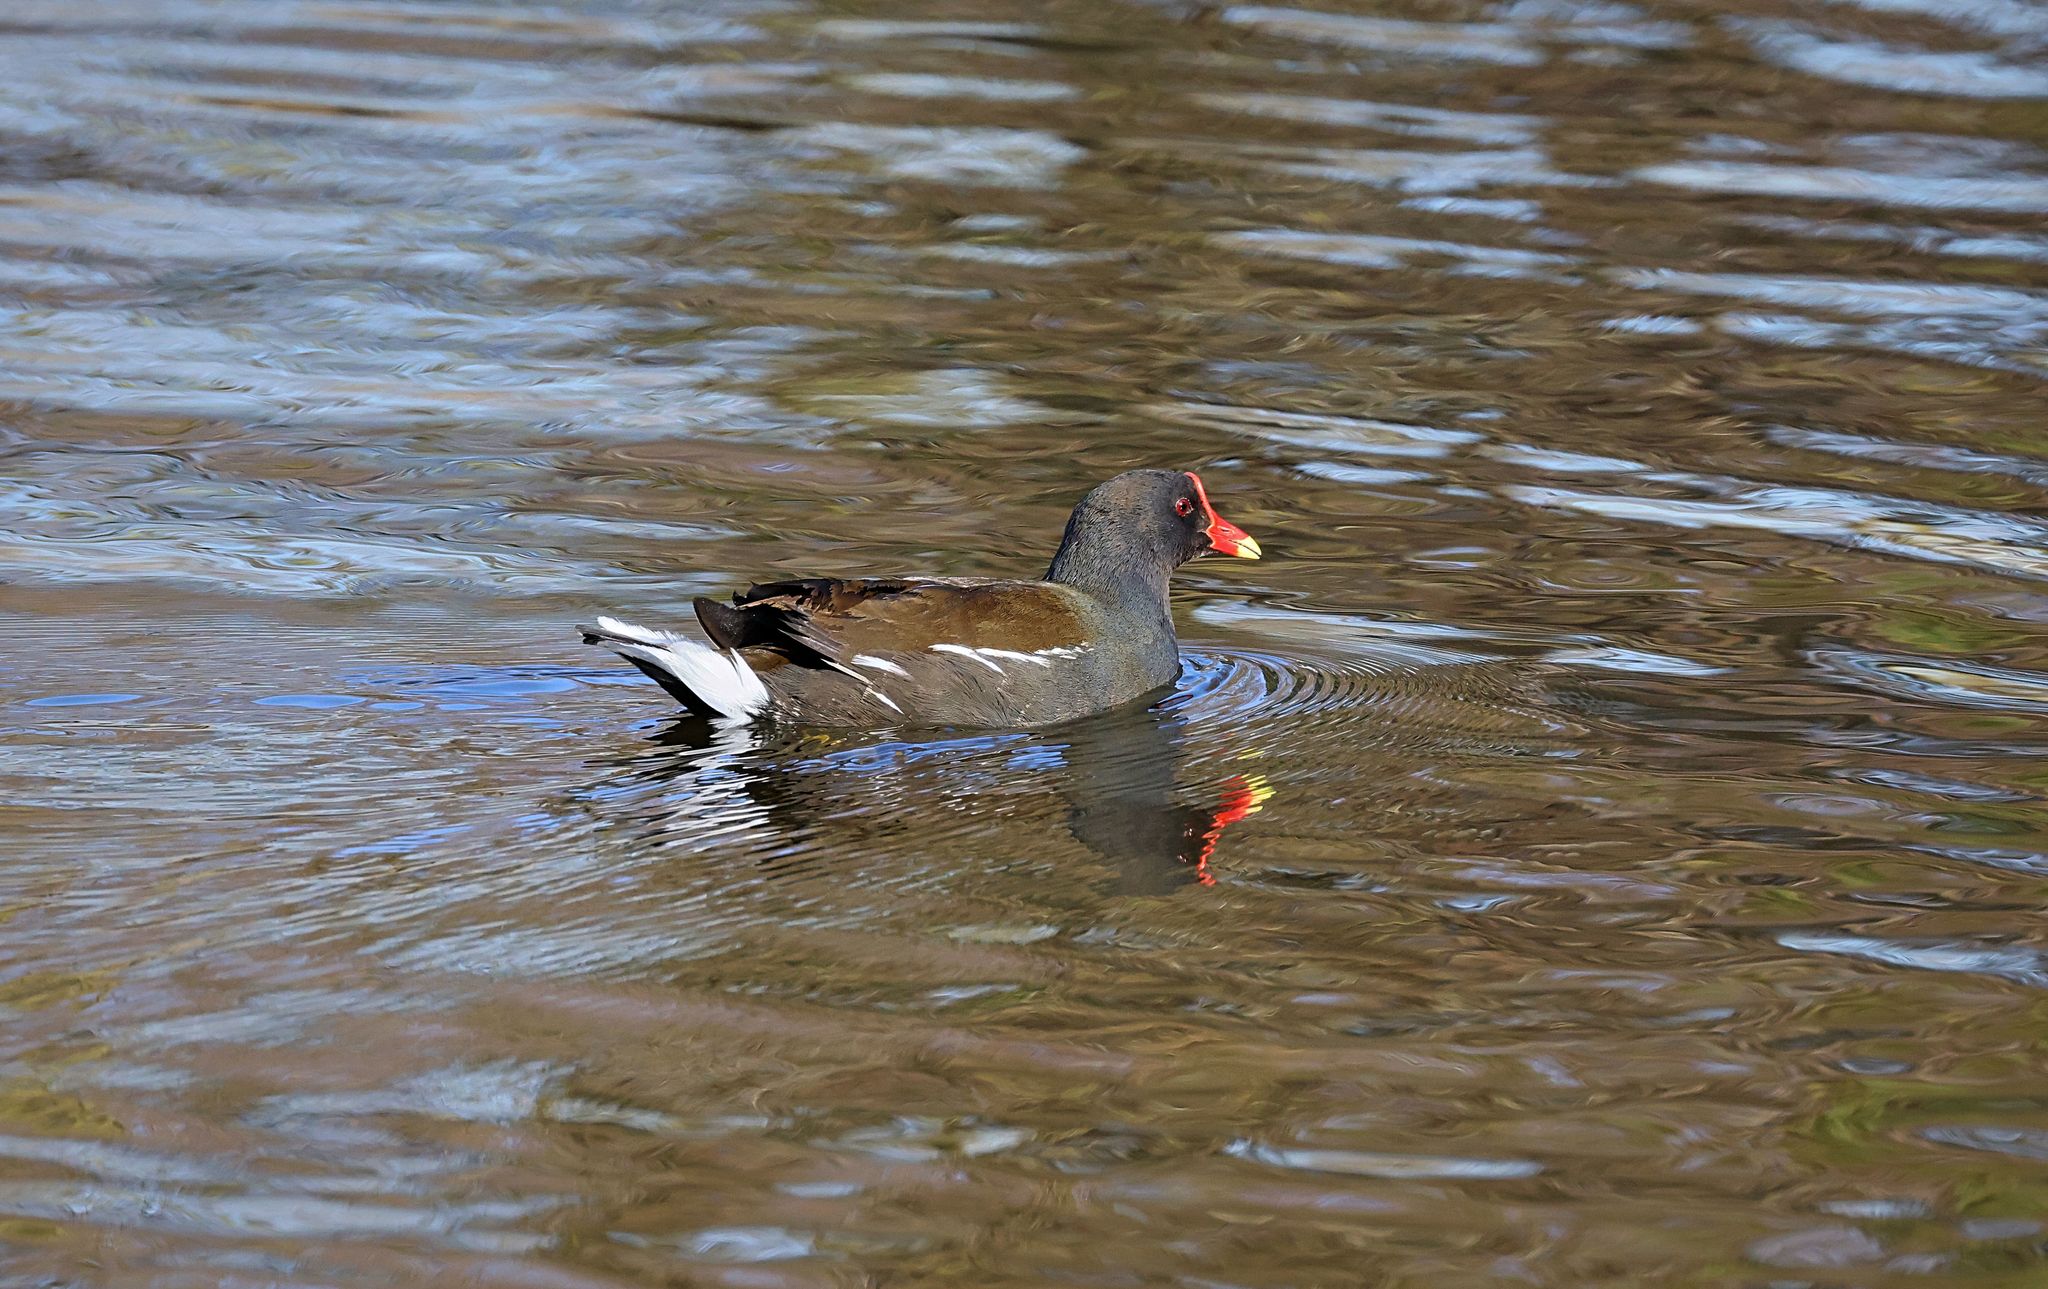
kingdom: Animalia
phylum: Chordata
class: Aves
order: Gruiformes
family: Rallidae
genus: Gallinula
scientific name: Gallinula chloropus
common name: Common moorhen
